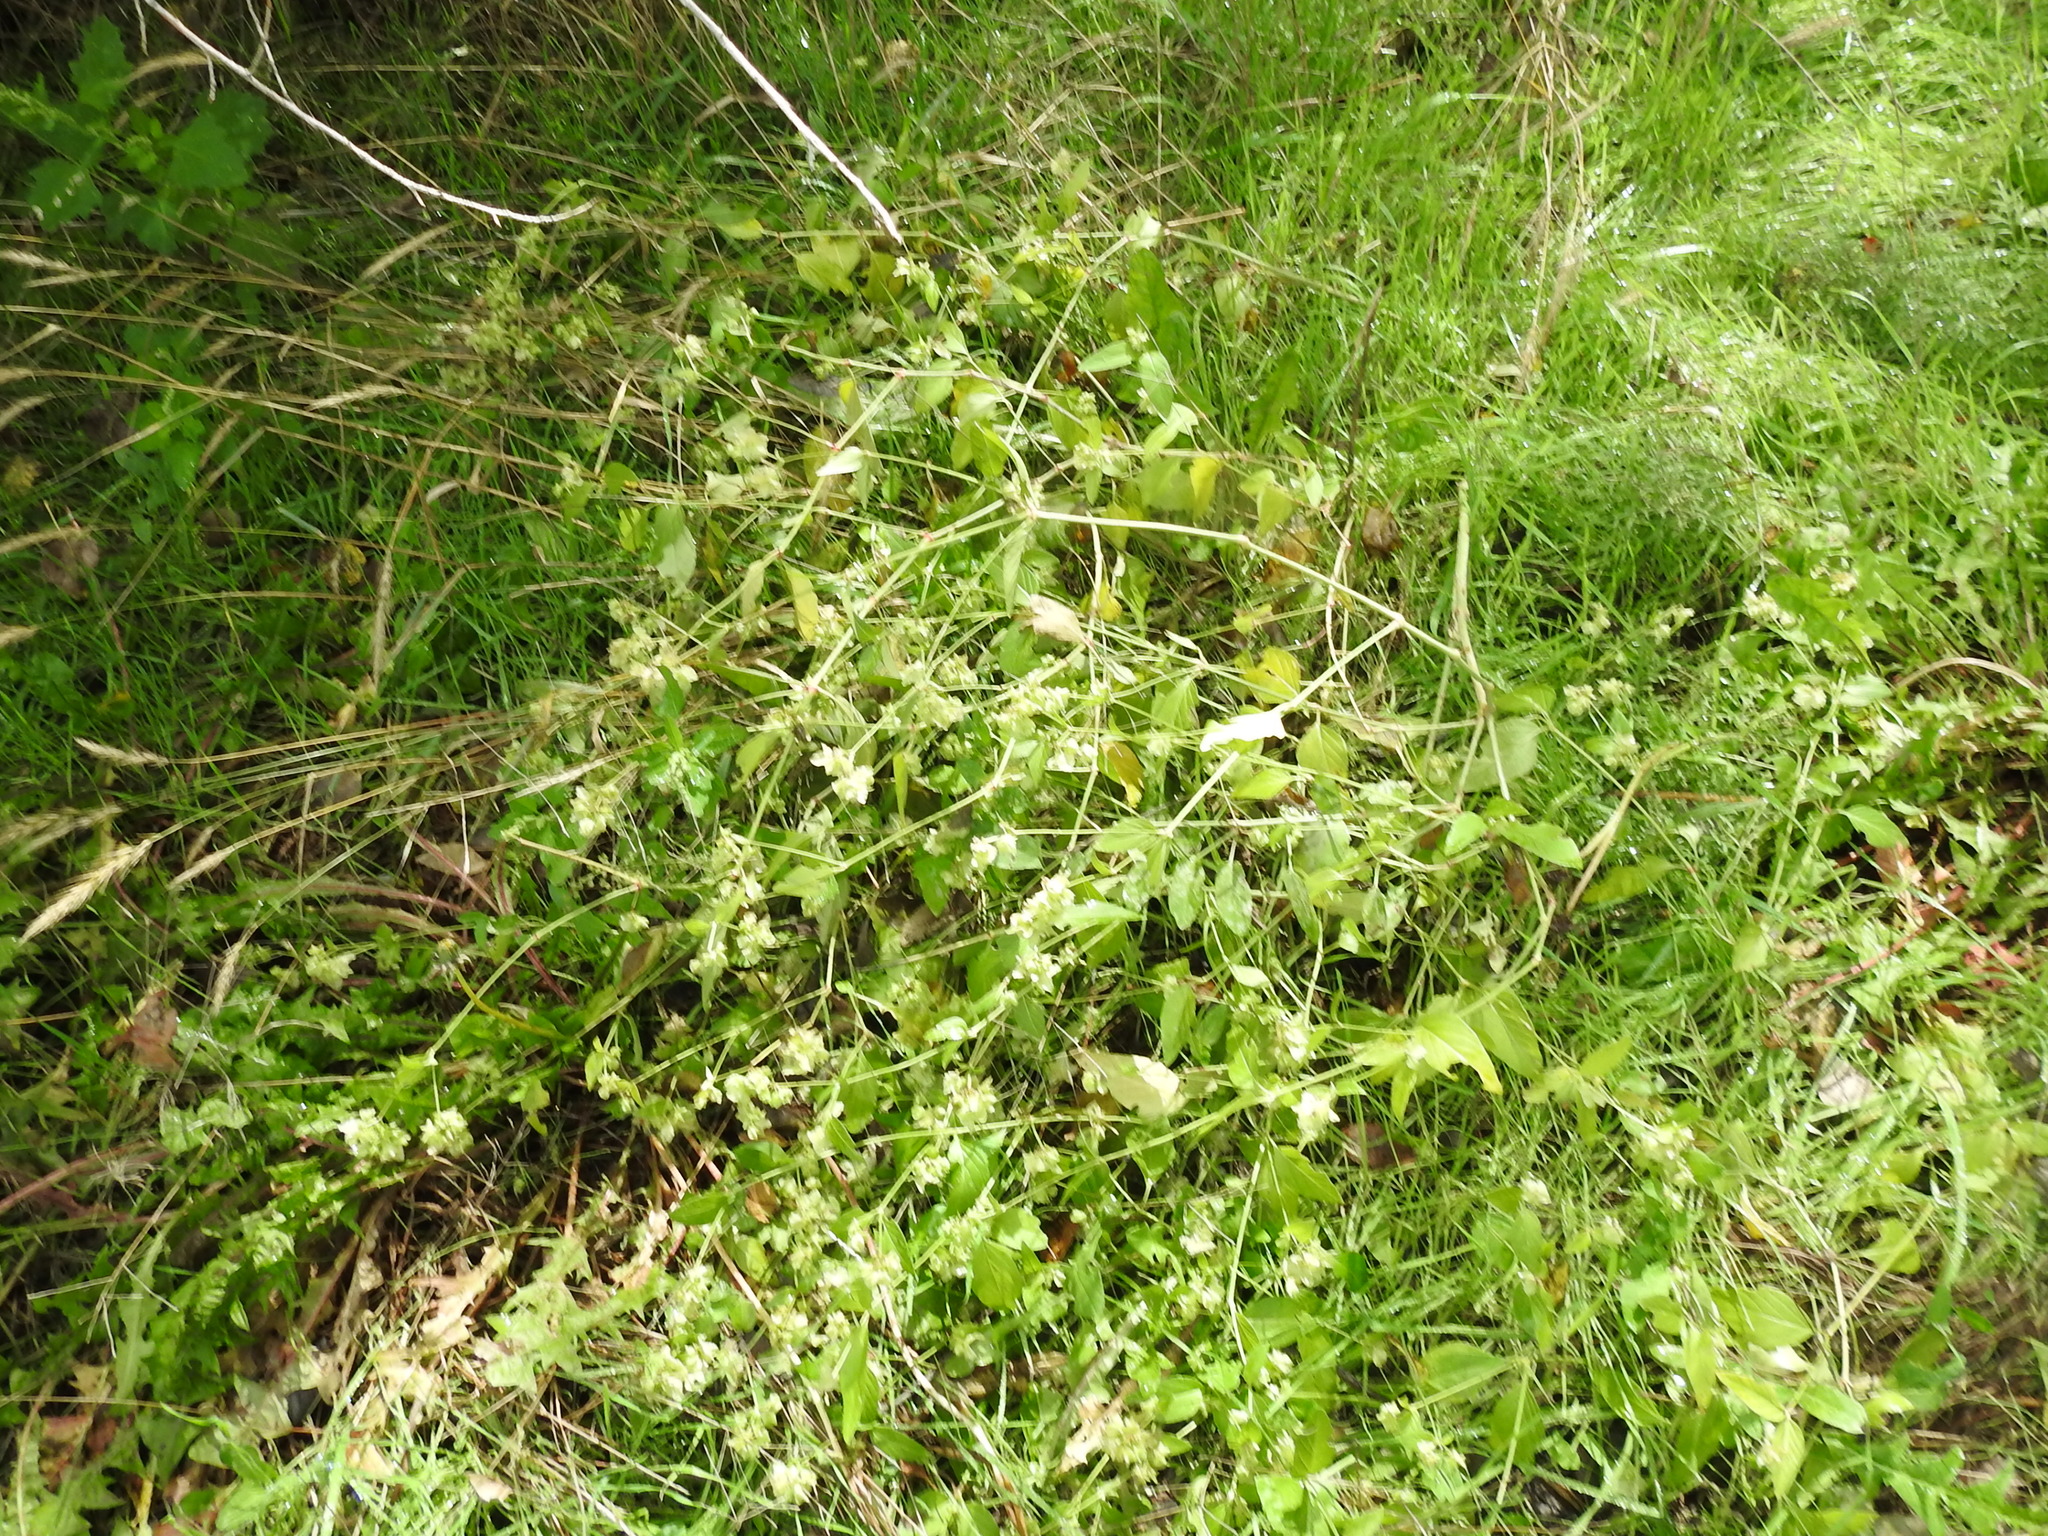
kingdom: Plantae
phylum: Tracheophyta
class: Magnoliopsida
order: Caryophyllales
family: Nyctaginaceae
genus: Mirabilis
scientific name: Mirabilis nyctaginea
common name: Umbrella wort
